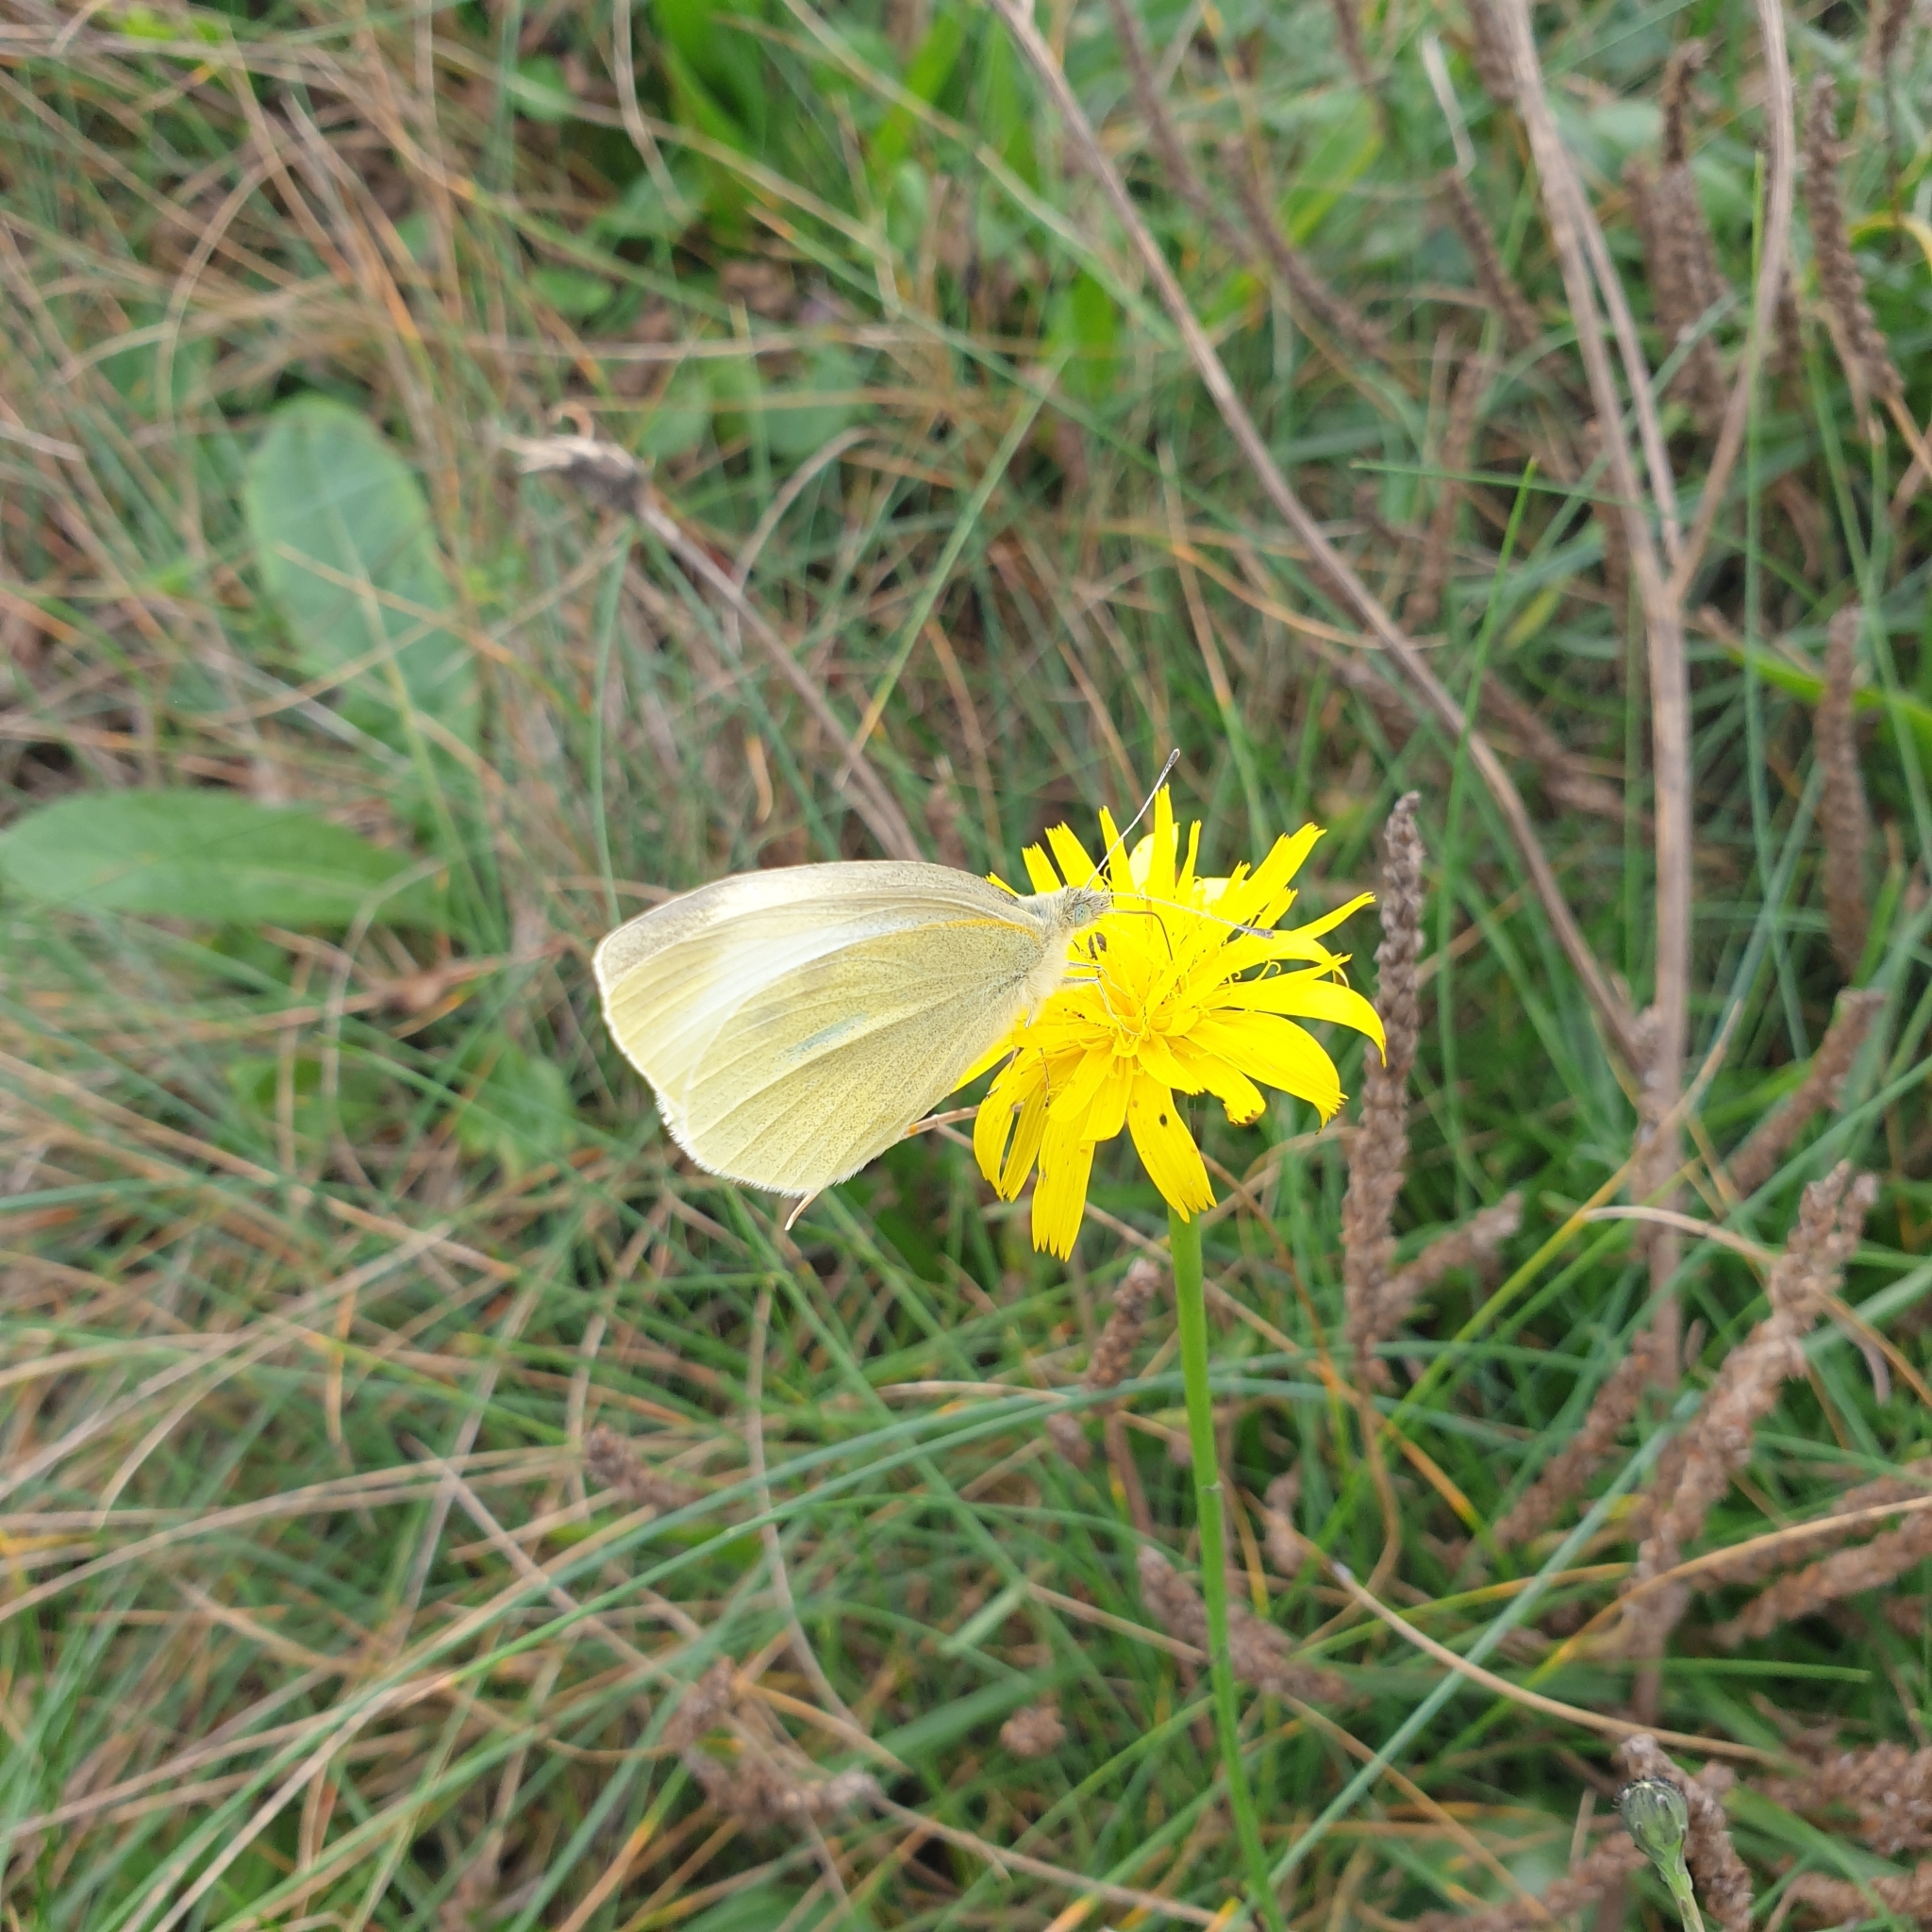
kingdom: Animalia
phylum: Arthropoda
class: Insecta
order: Lepidoptera
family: Pieridae
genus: Pieris
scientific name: Pieris rapae
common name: Small white
